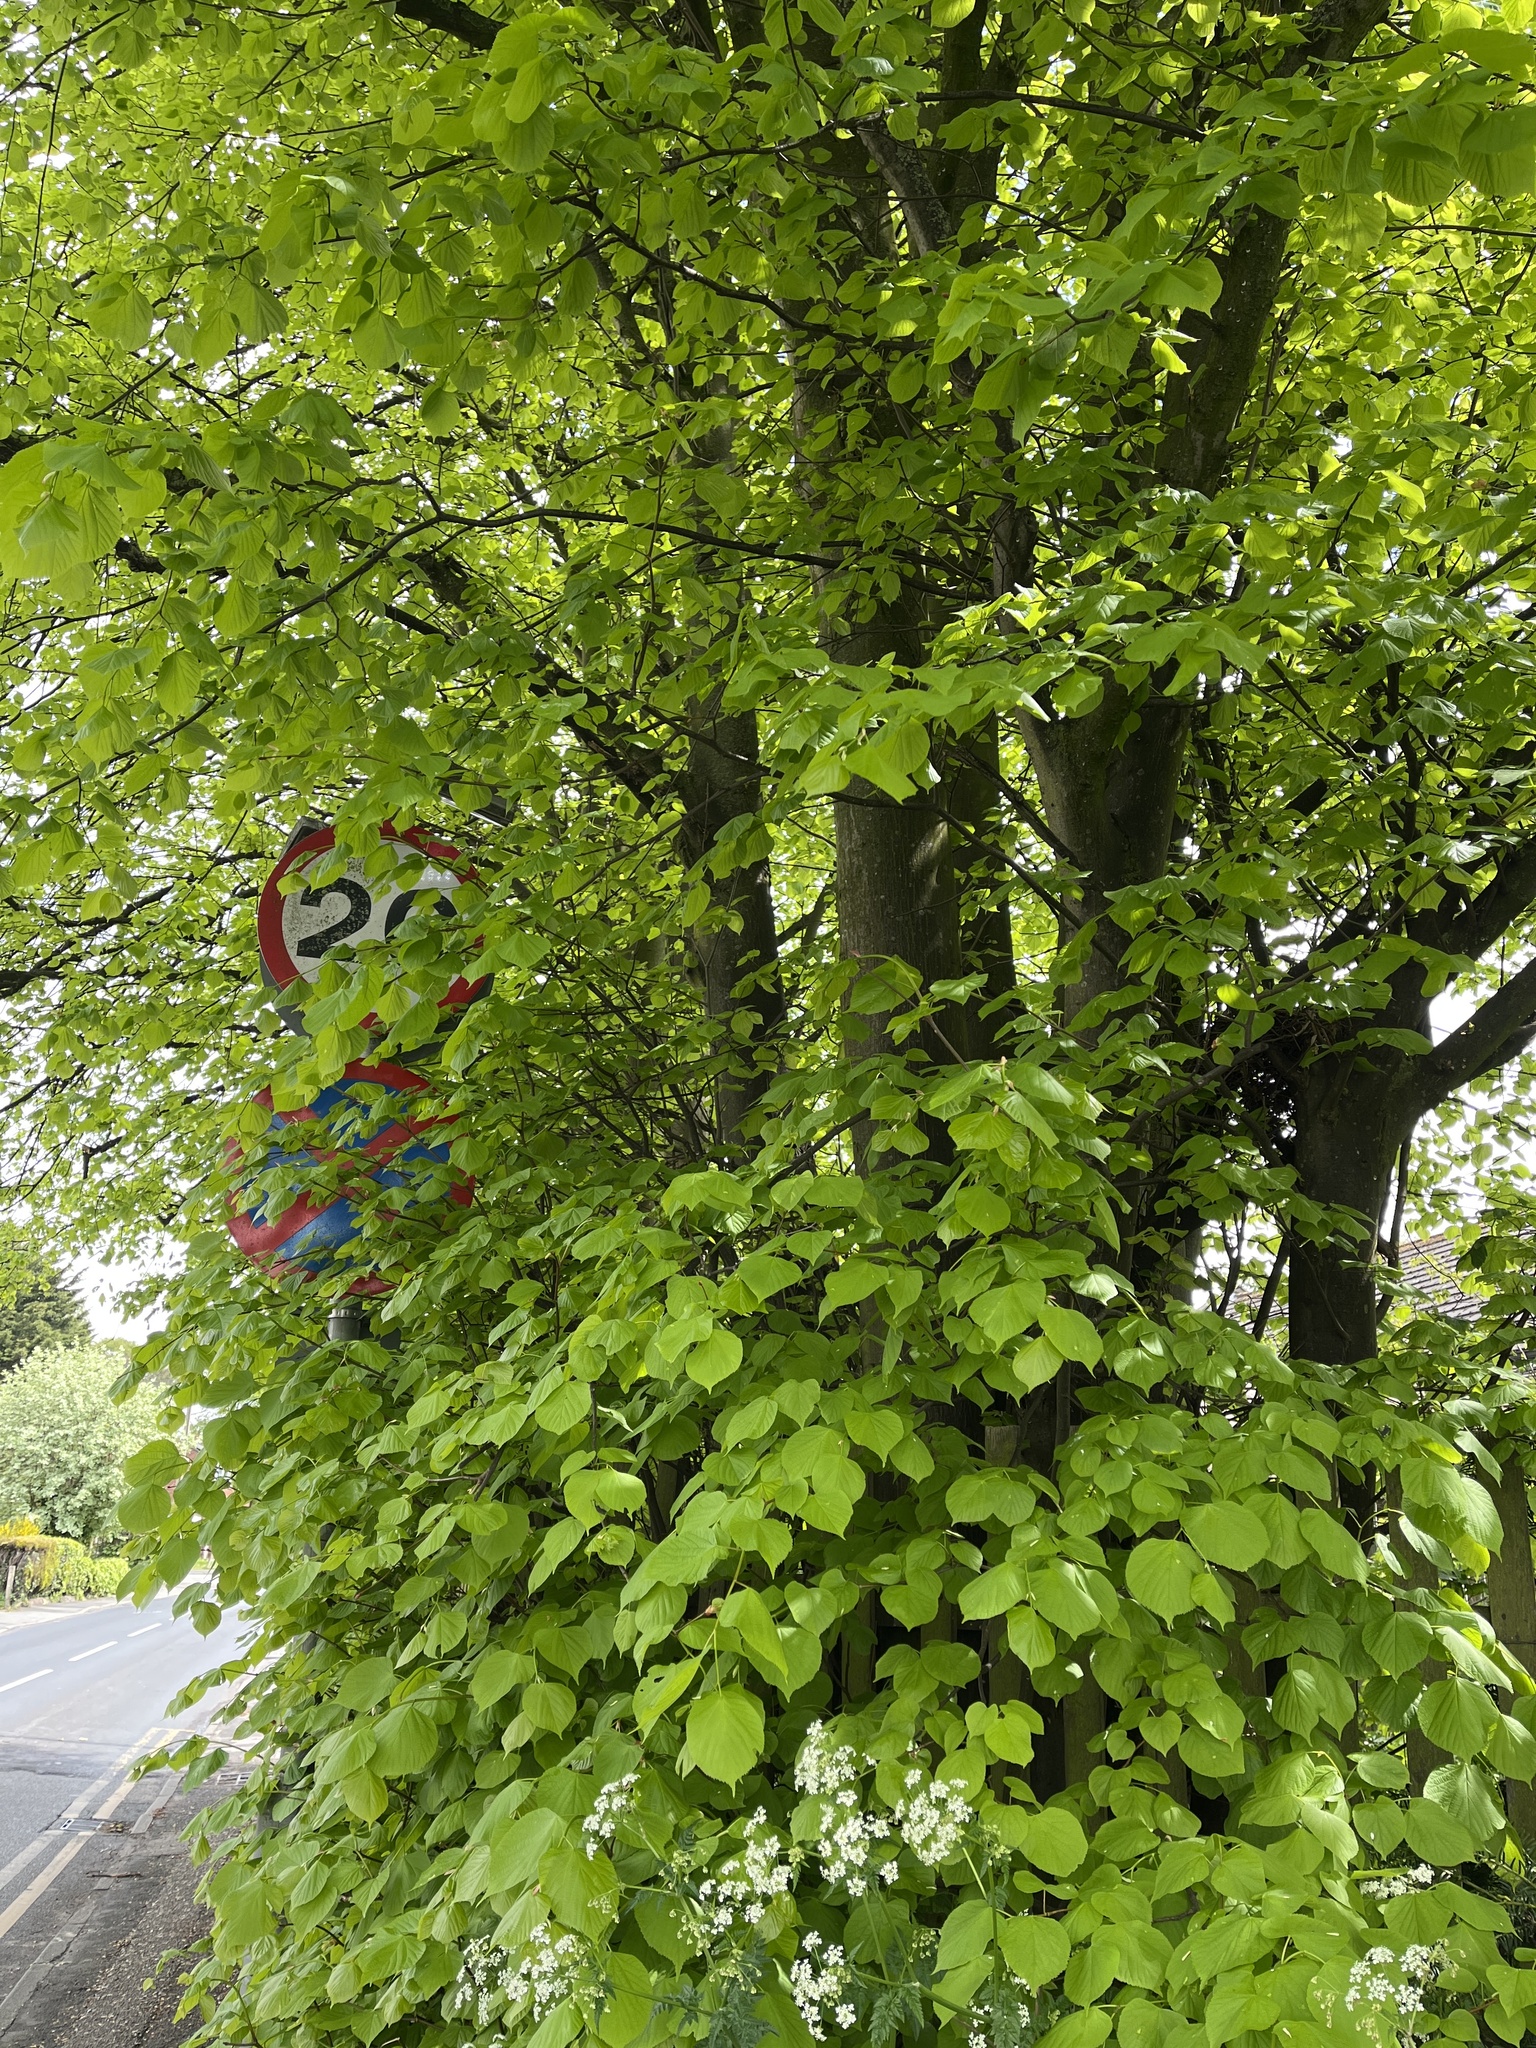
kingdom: Plantae
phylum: Tracheophyta
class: Magnoliopsida
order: Malvales
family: Malvaceae
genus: Tilia
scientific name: Tilia europaea
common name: European linden
